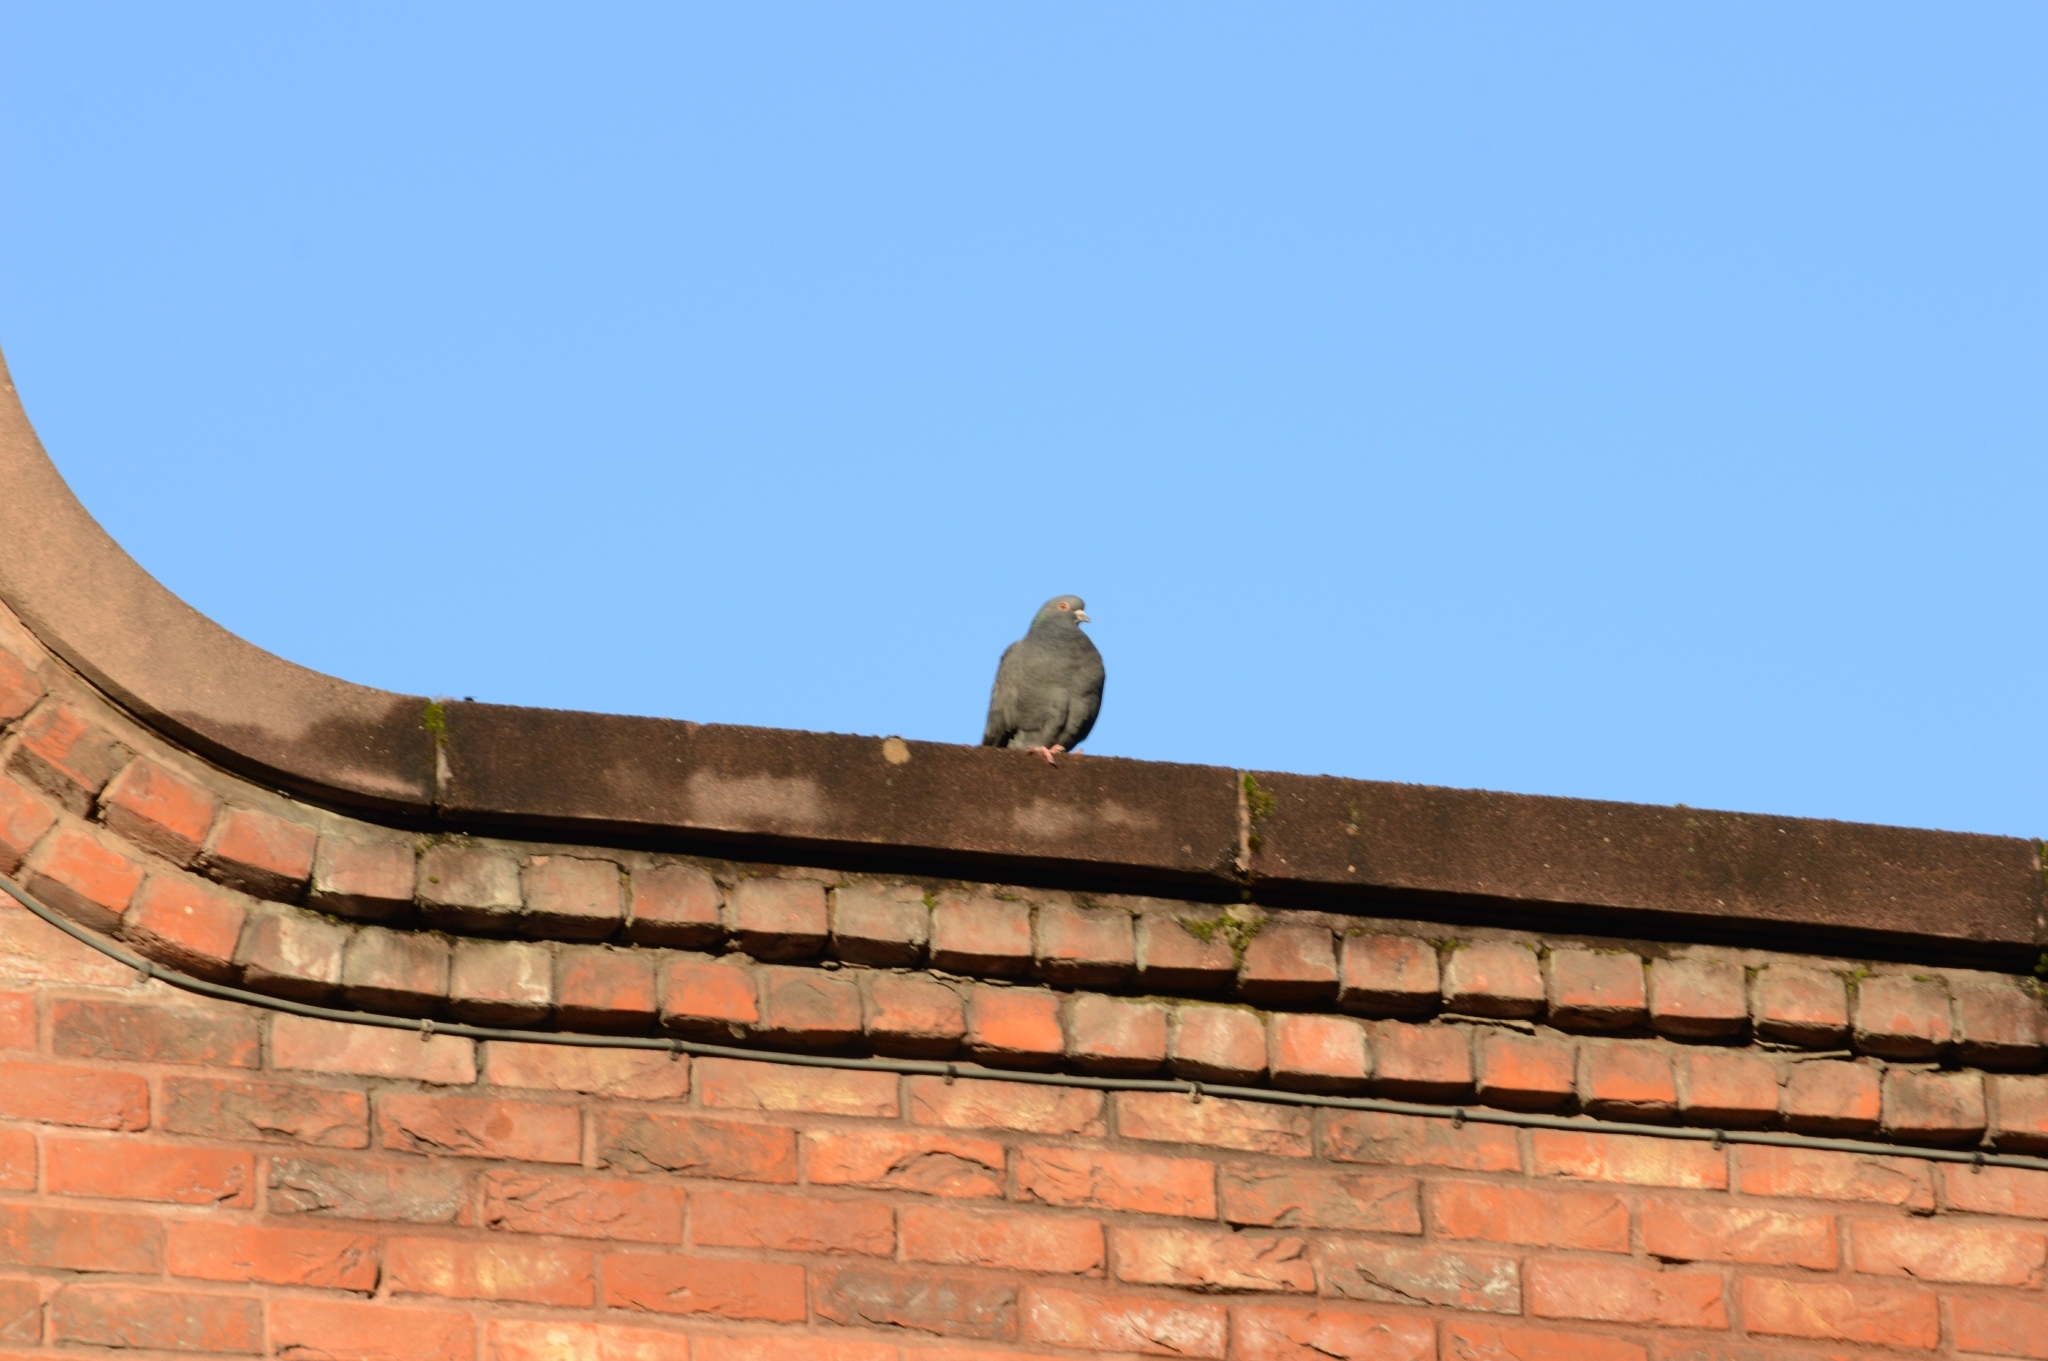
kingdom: Animalia
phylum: Chordata
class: Aves
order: Columbiformes
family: Columbidae
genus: Columba
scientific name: Columba livia
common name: Rock pigeon
